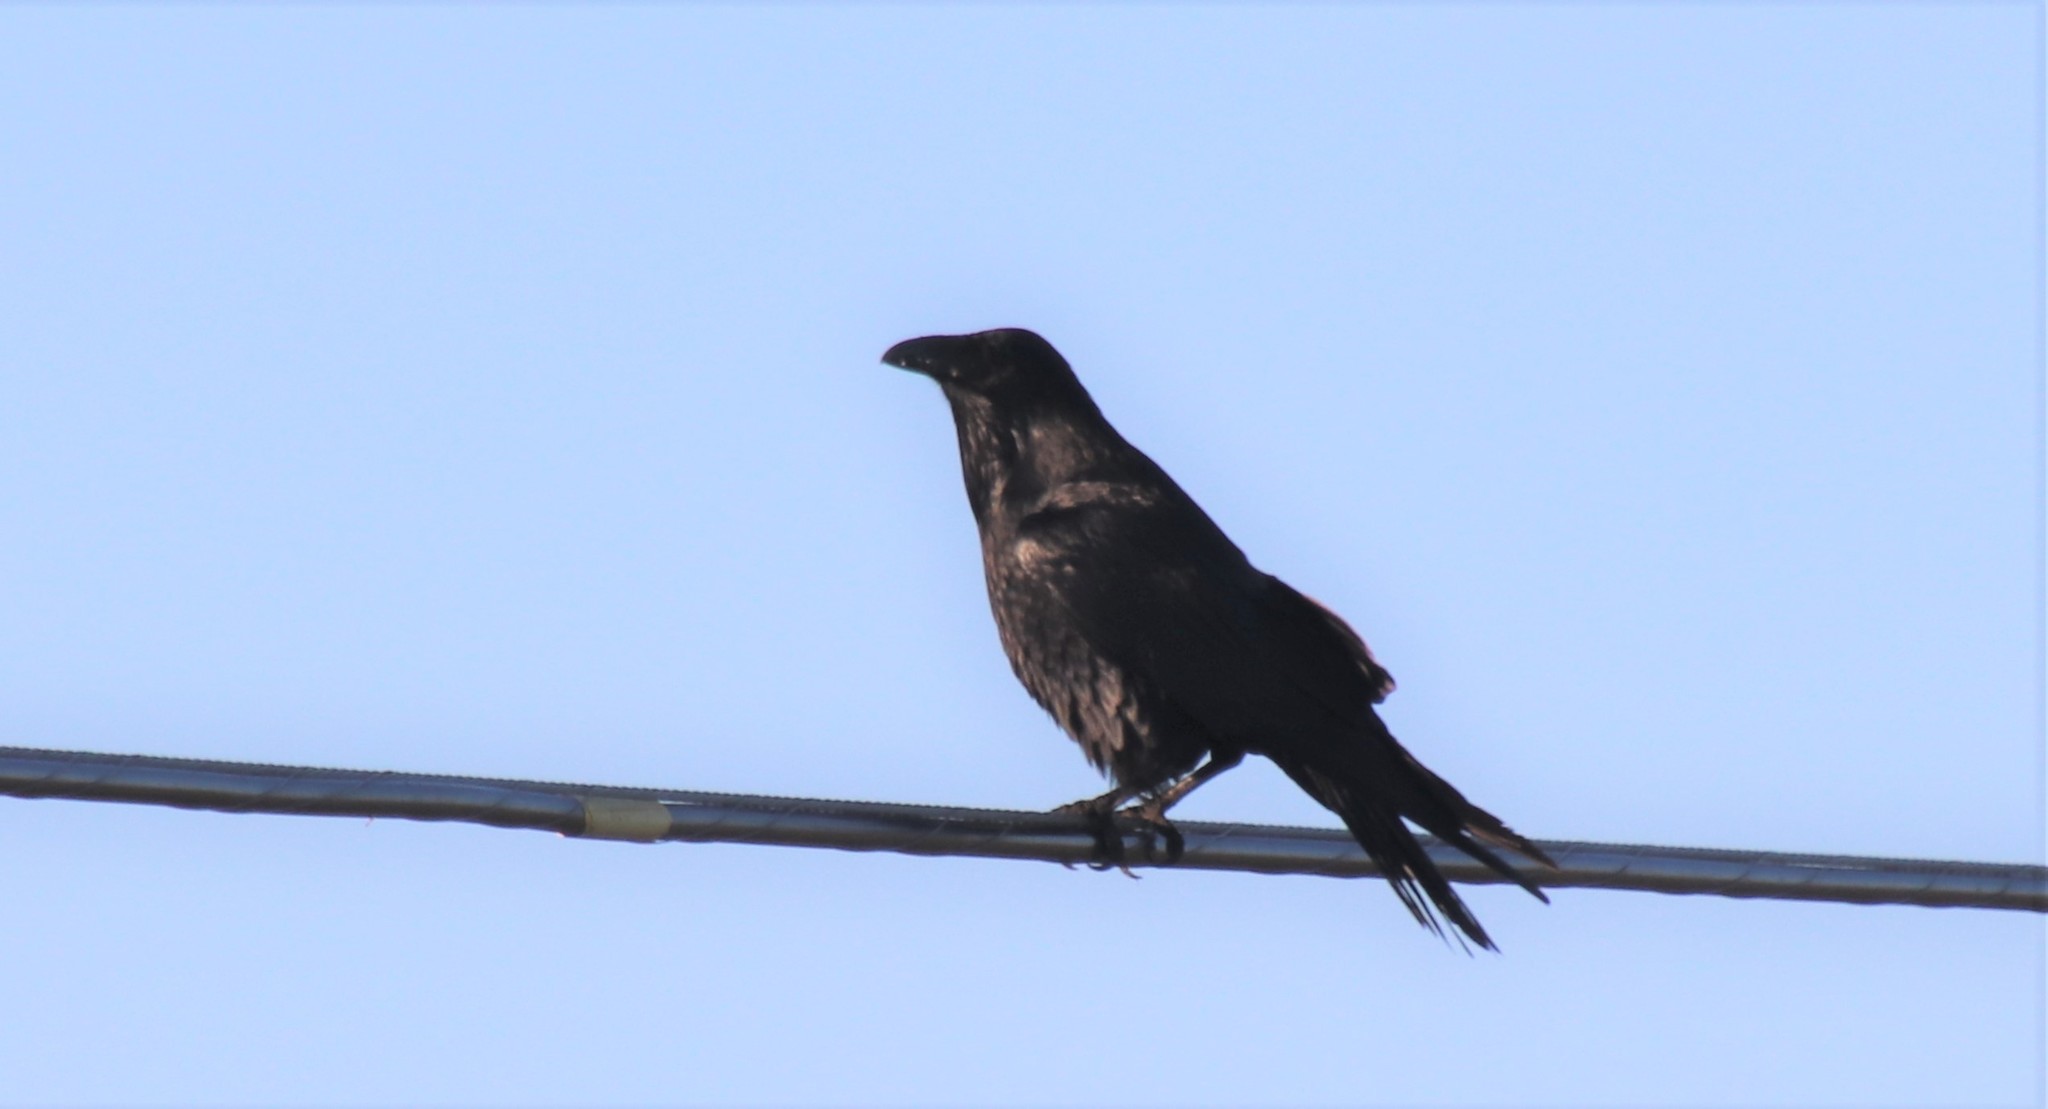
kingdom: Animalia
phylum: Chordata
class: Aves
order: Passeriformes
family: Corvidae
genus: Corvus
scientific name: Corvus corax
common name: Common raven
